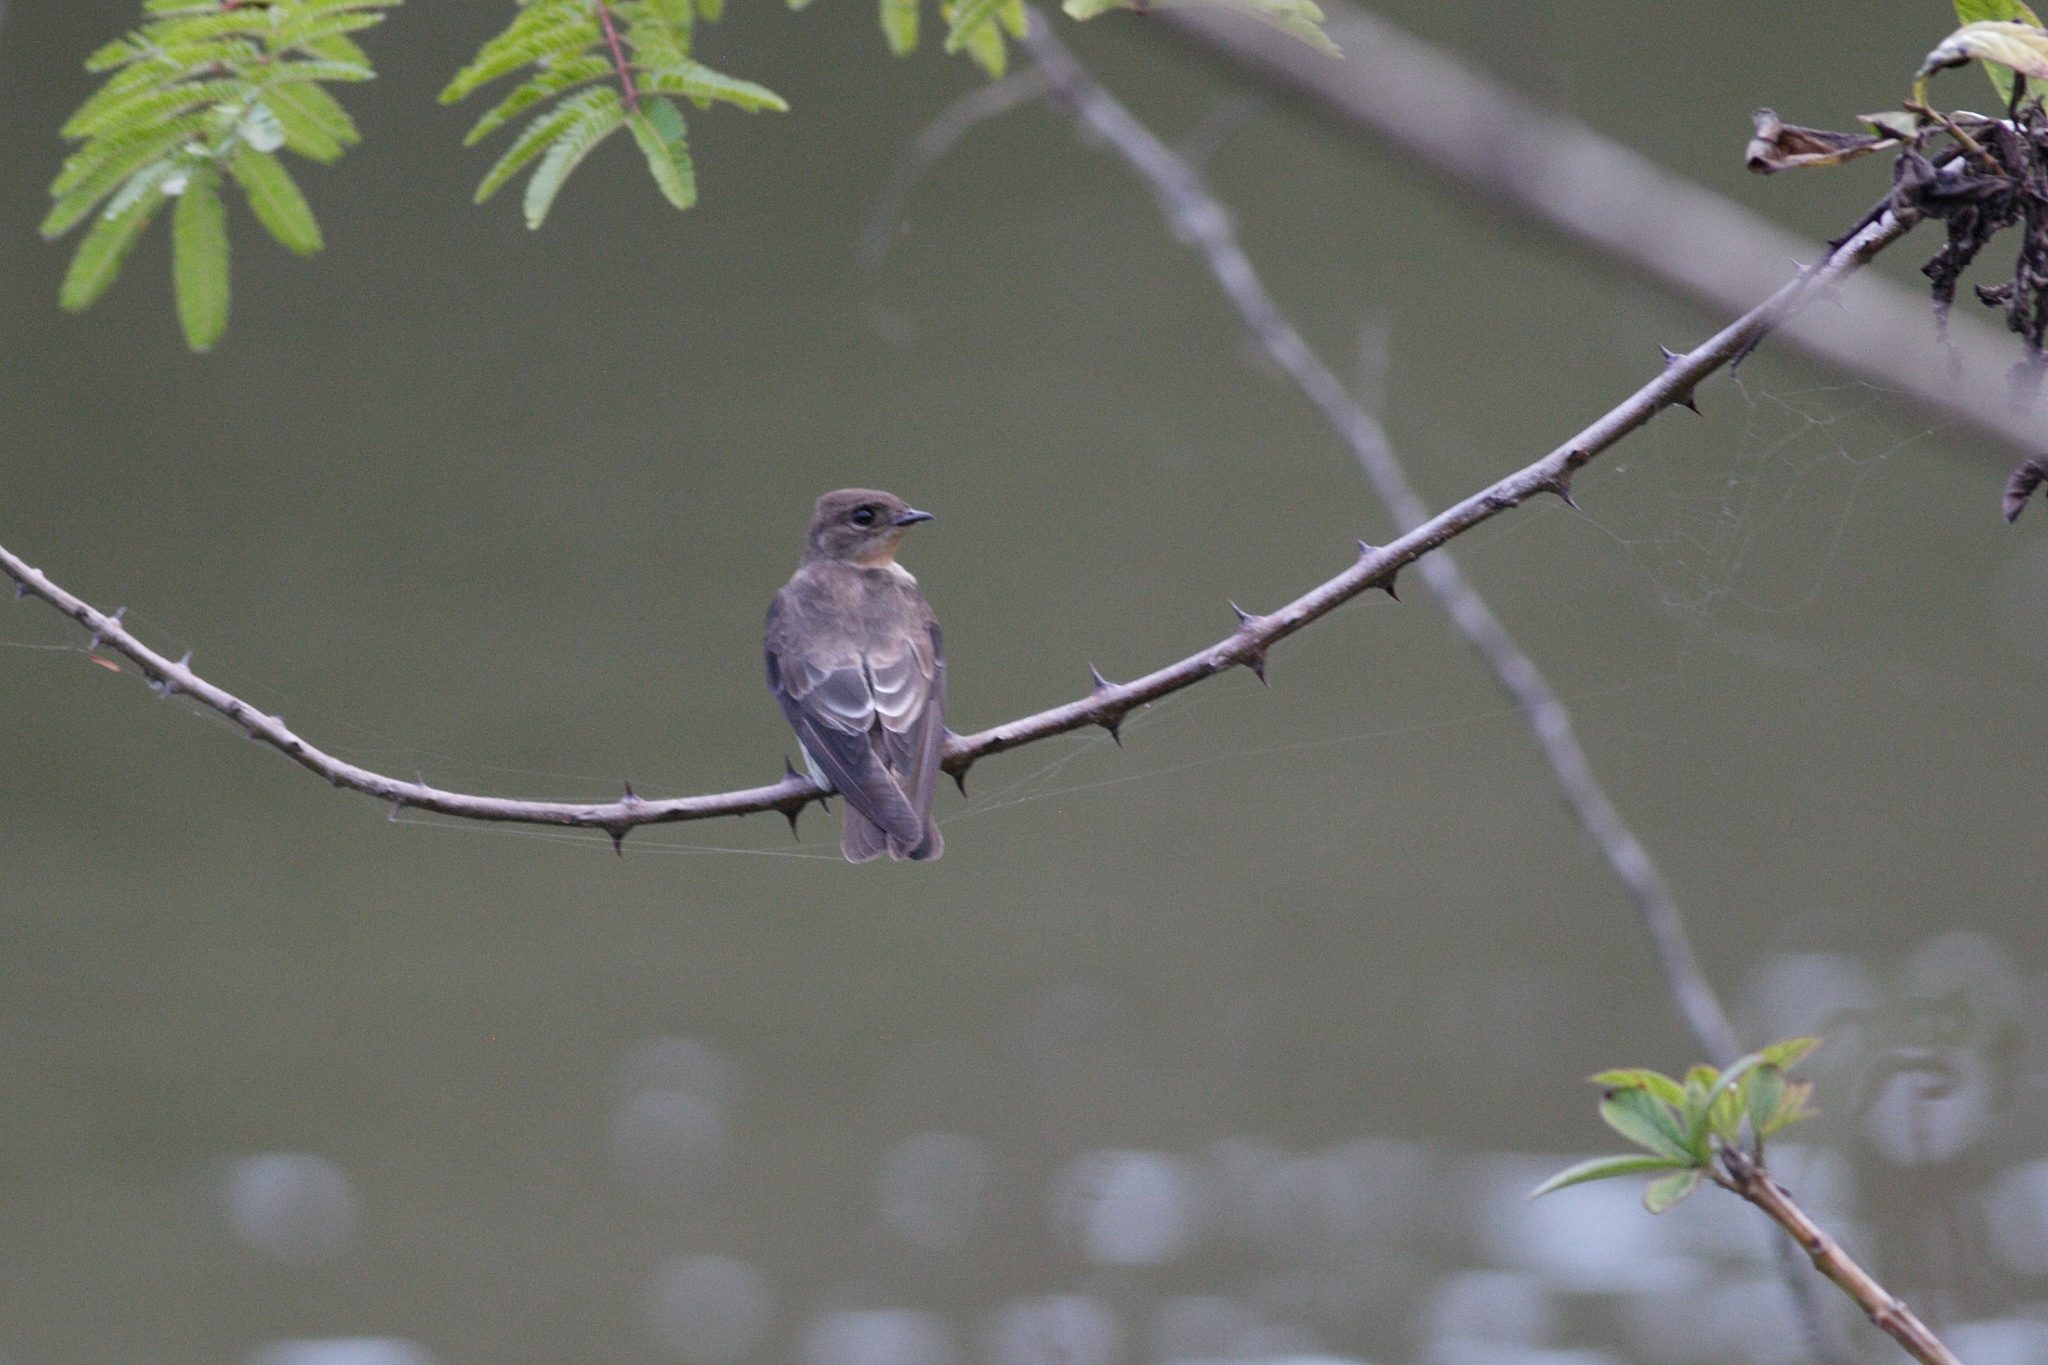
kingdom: Animalia
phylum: Chordata
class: Aves
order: Passeriformes
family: Hirundinidae
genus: Stelgidopteryx
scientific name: Stelgidopteryx ruficollis
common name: Southern rough-winged swallow
